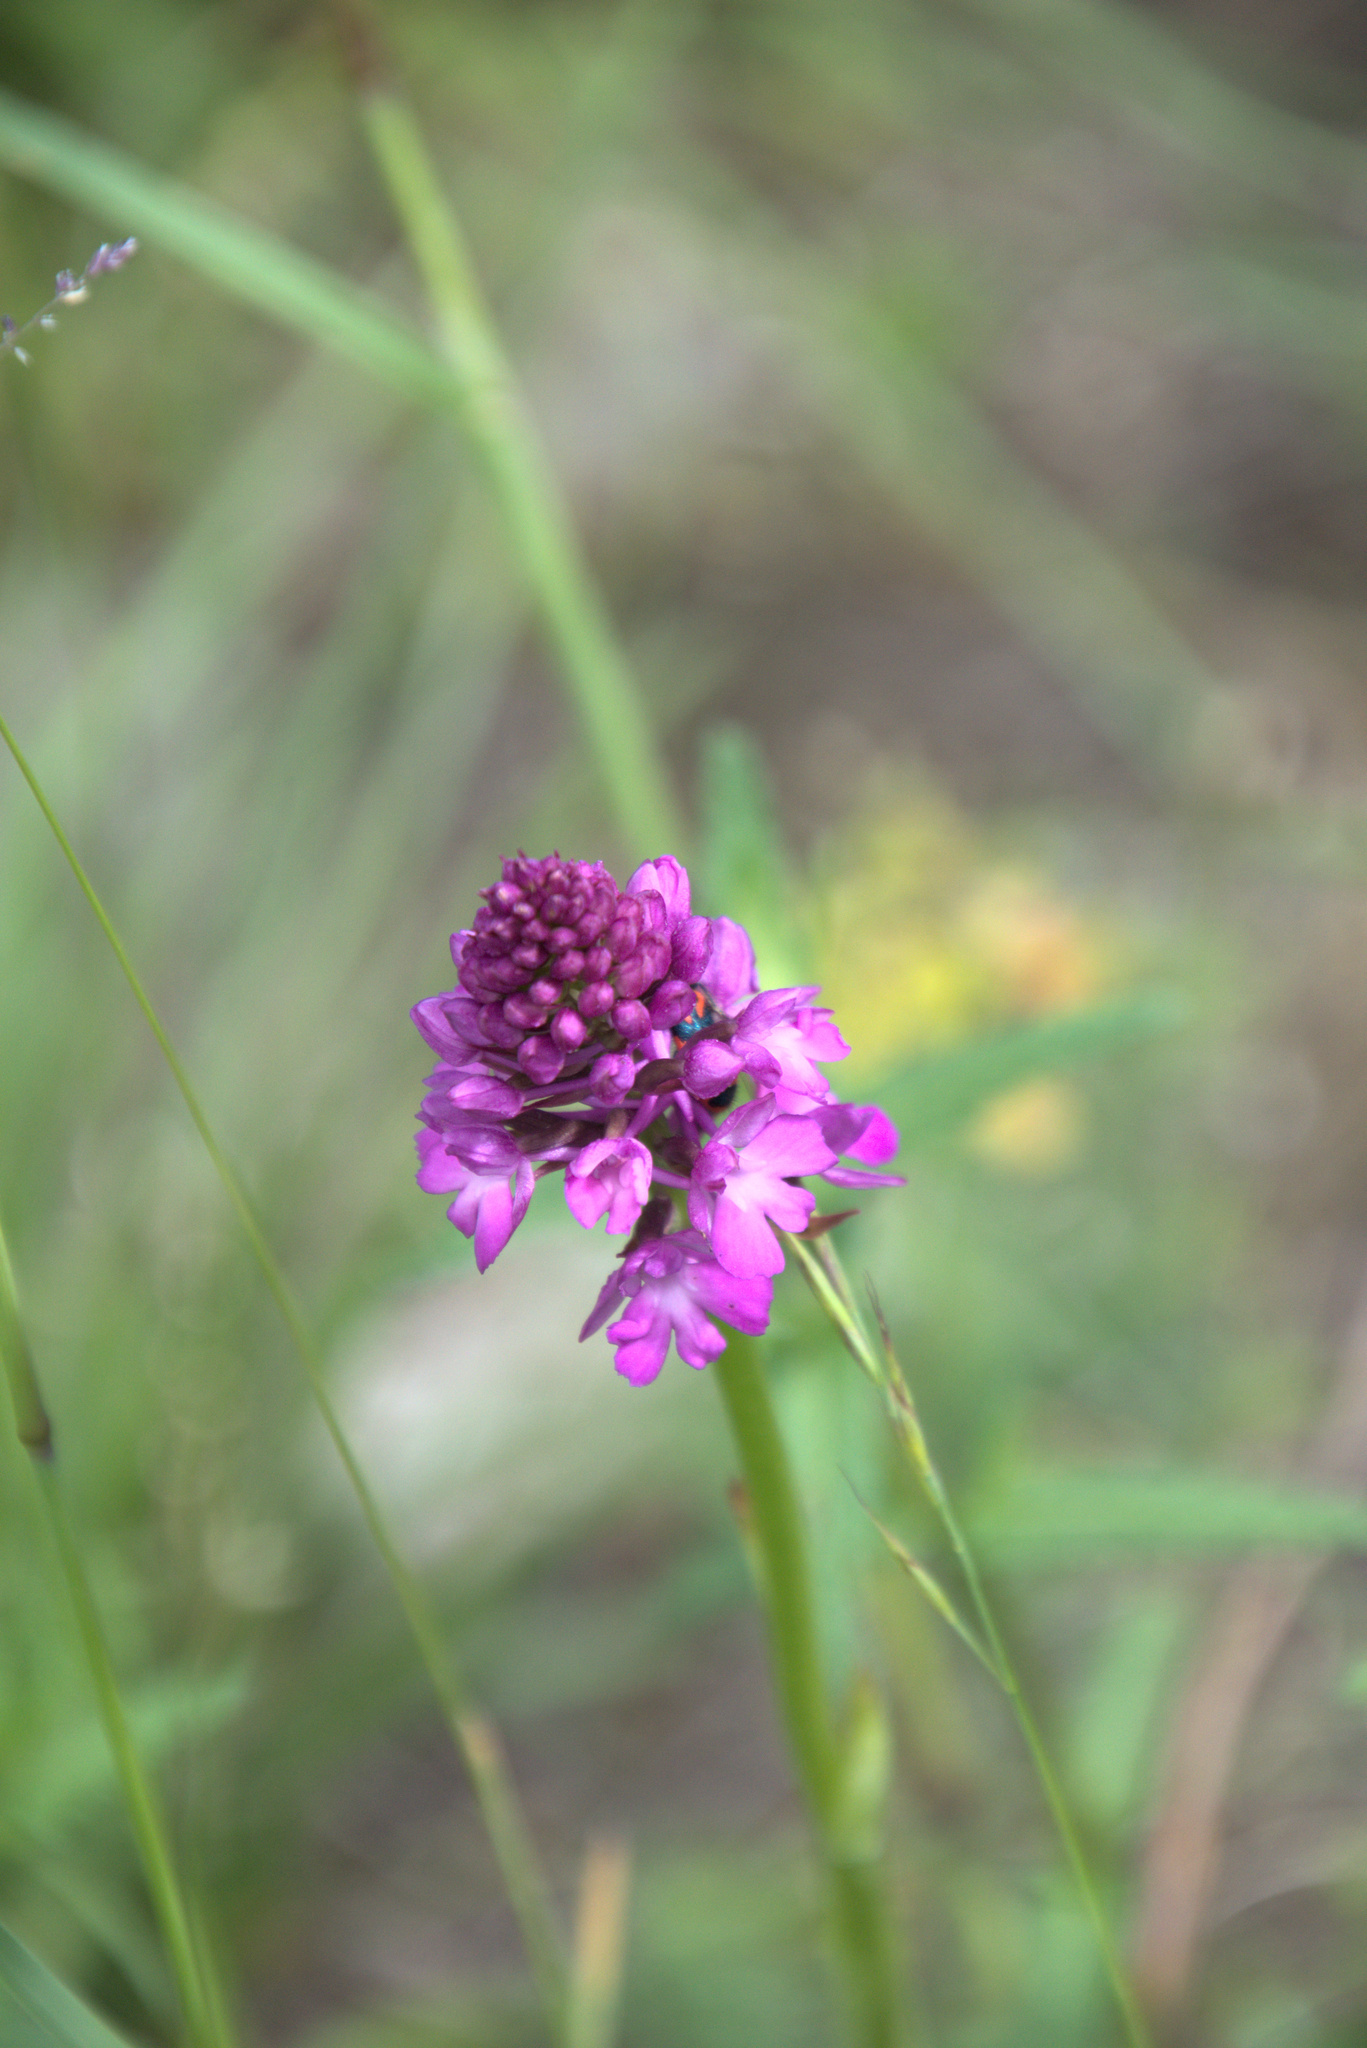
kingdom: Plantae
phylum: Tracheophyta
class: Liliopsida
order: Asparagales
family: Orchidaceae
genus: Anacamptis
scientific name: Anacamptis pyramidalis
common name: Pyramidal orchid
